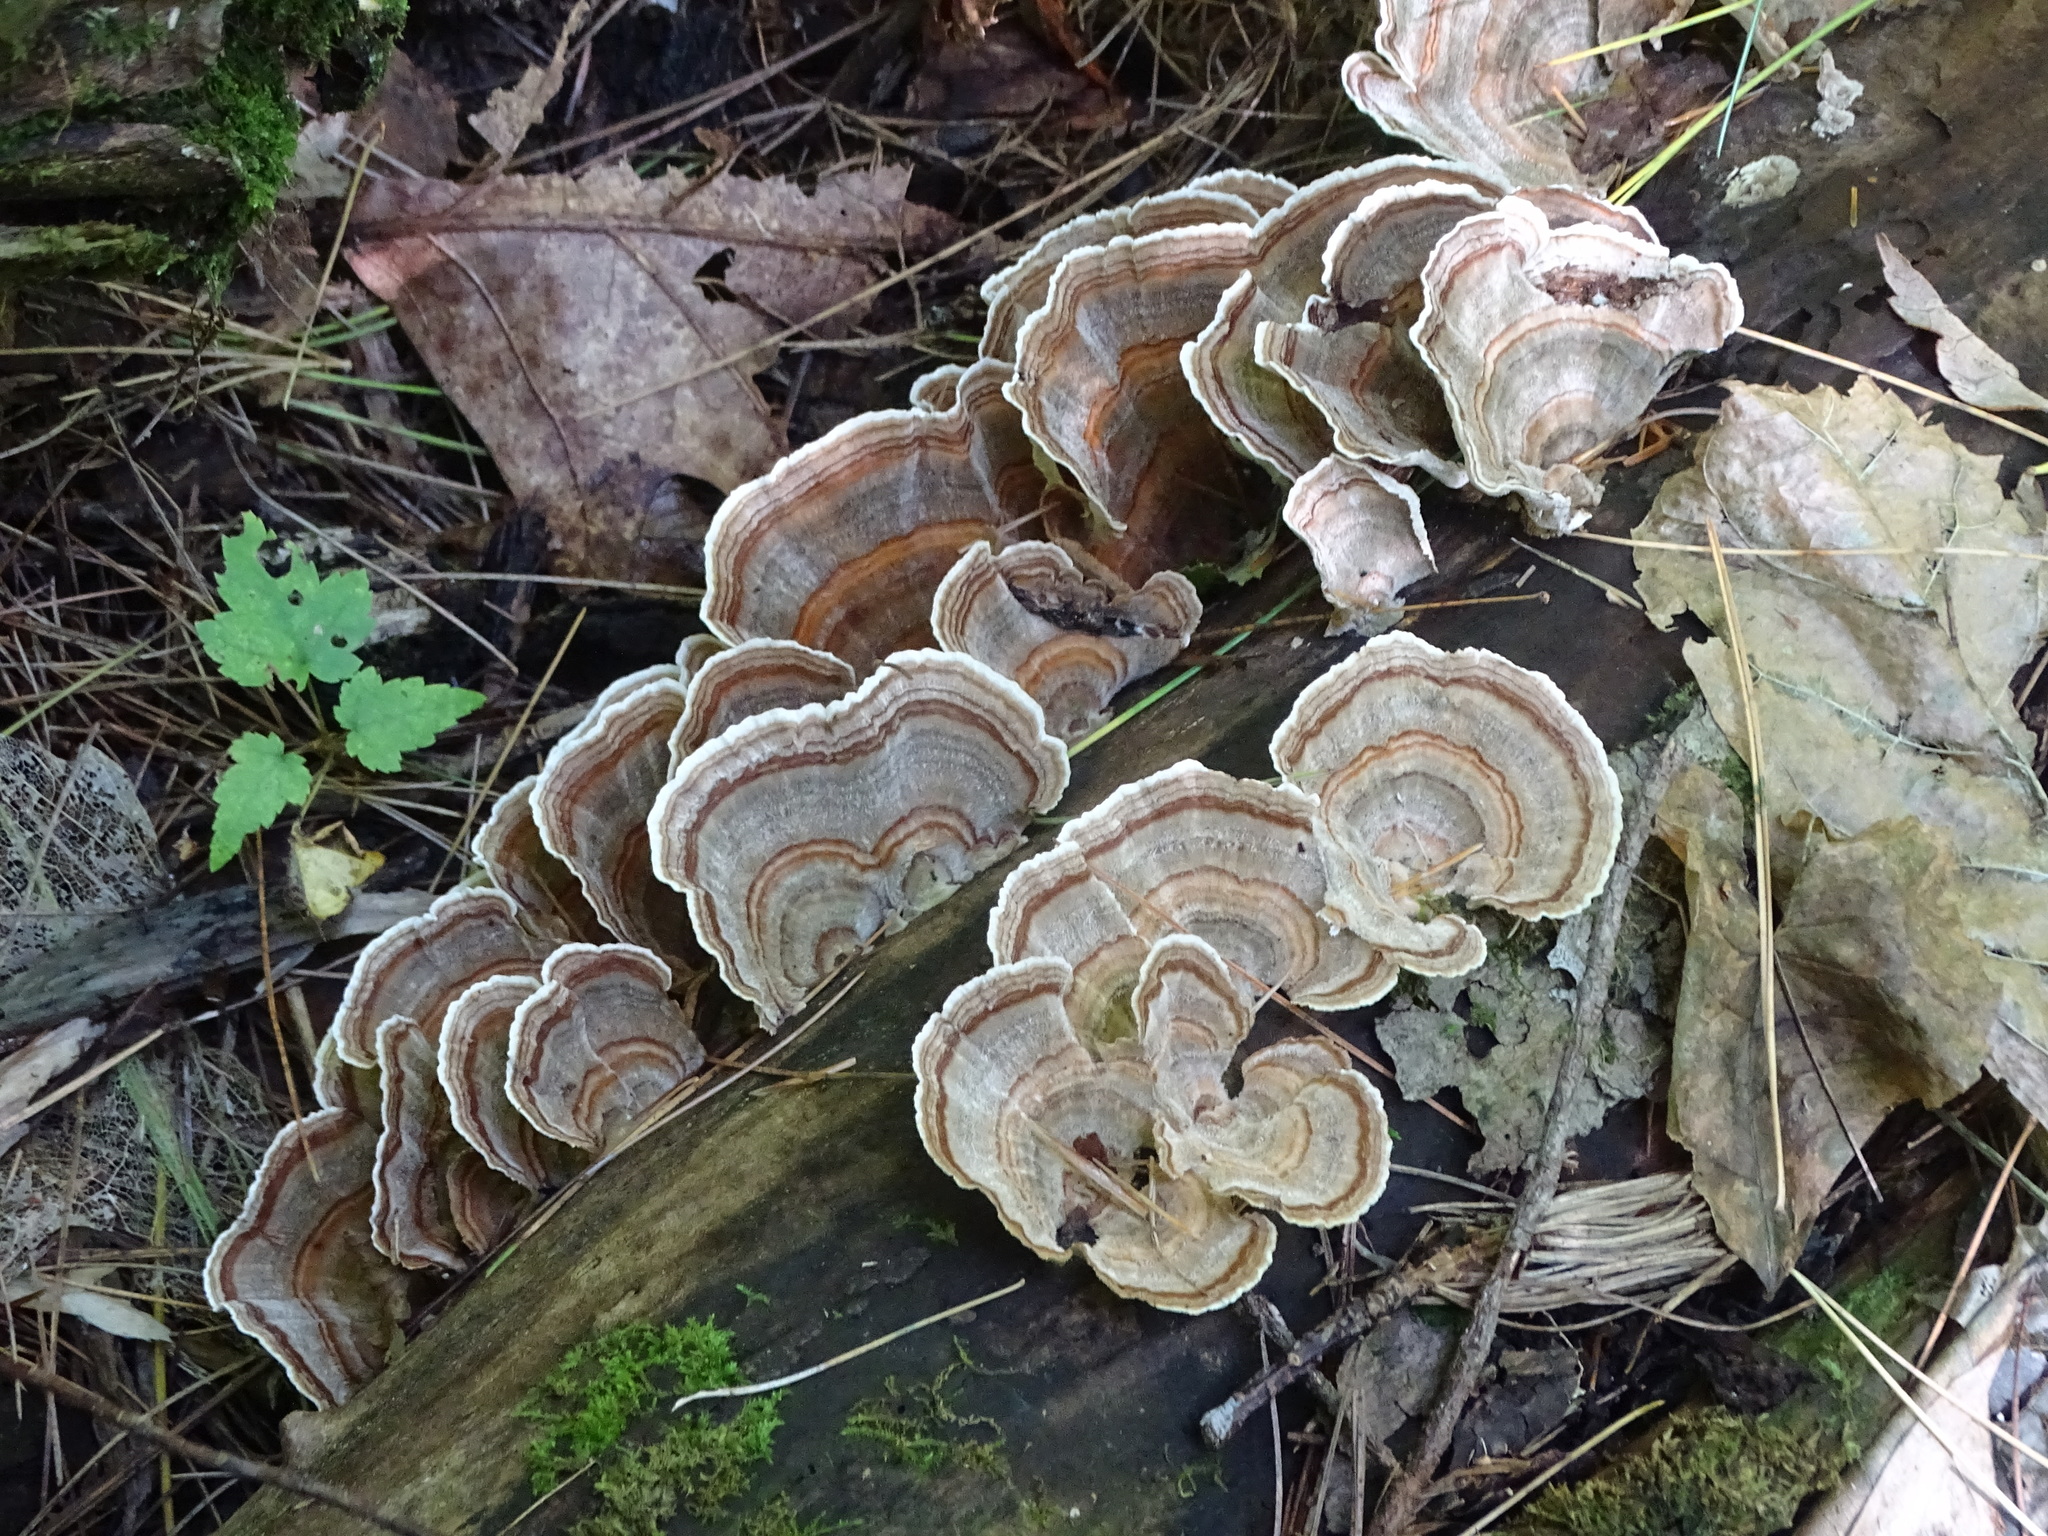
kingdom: Fungi
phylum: Basidiomycota
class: Agaricomycetes
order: Polyporales
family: Polyporaceae
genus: Trametes
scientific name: Trametes versicolor
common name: Turkeytail
